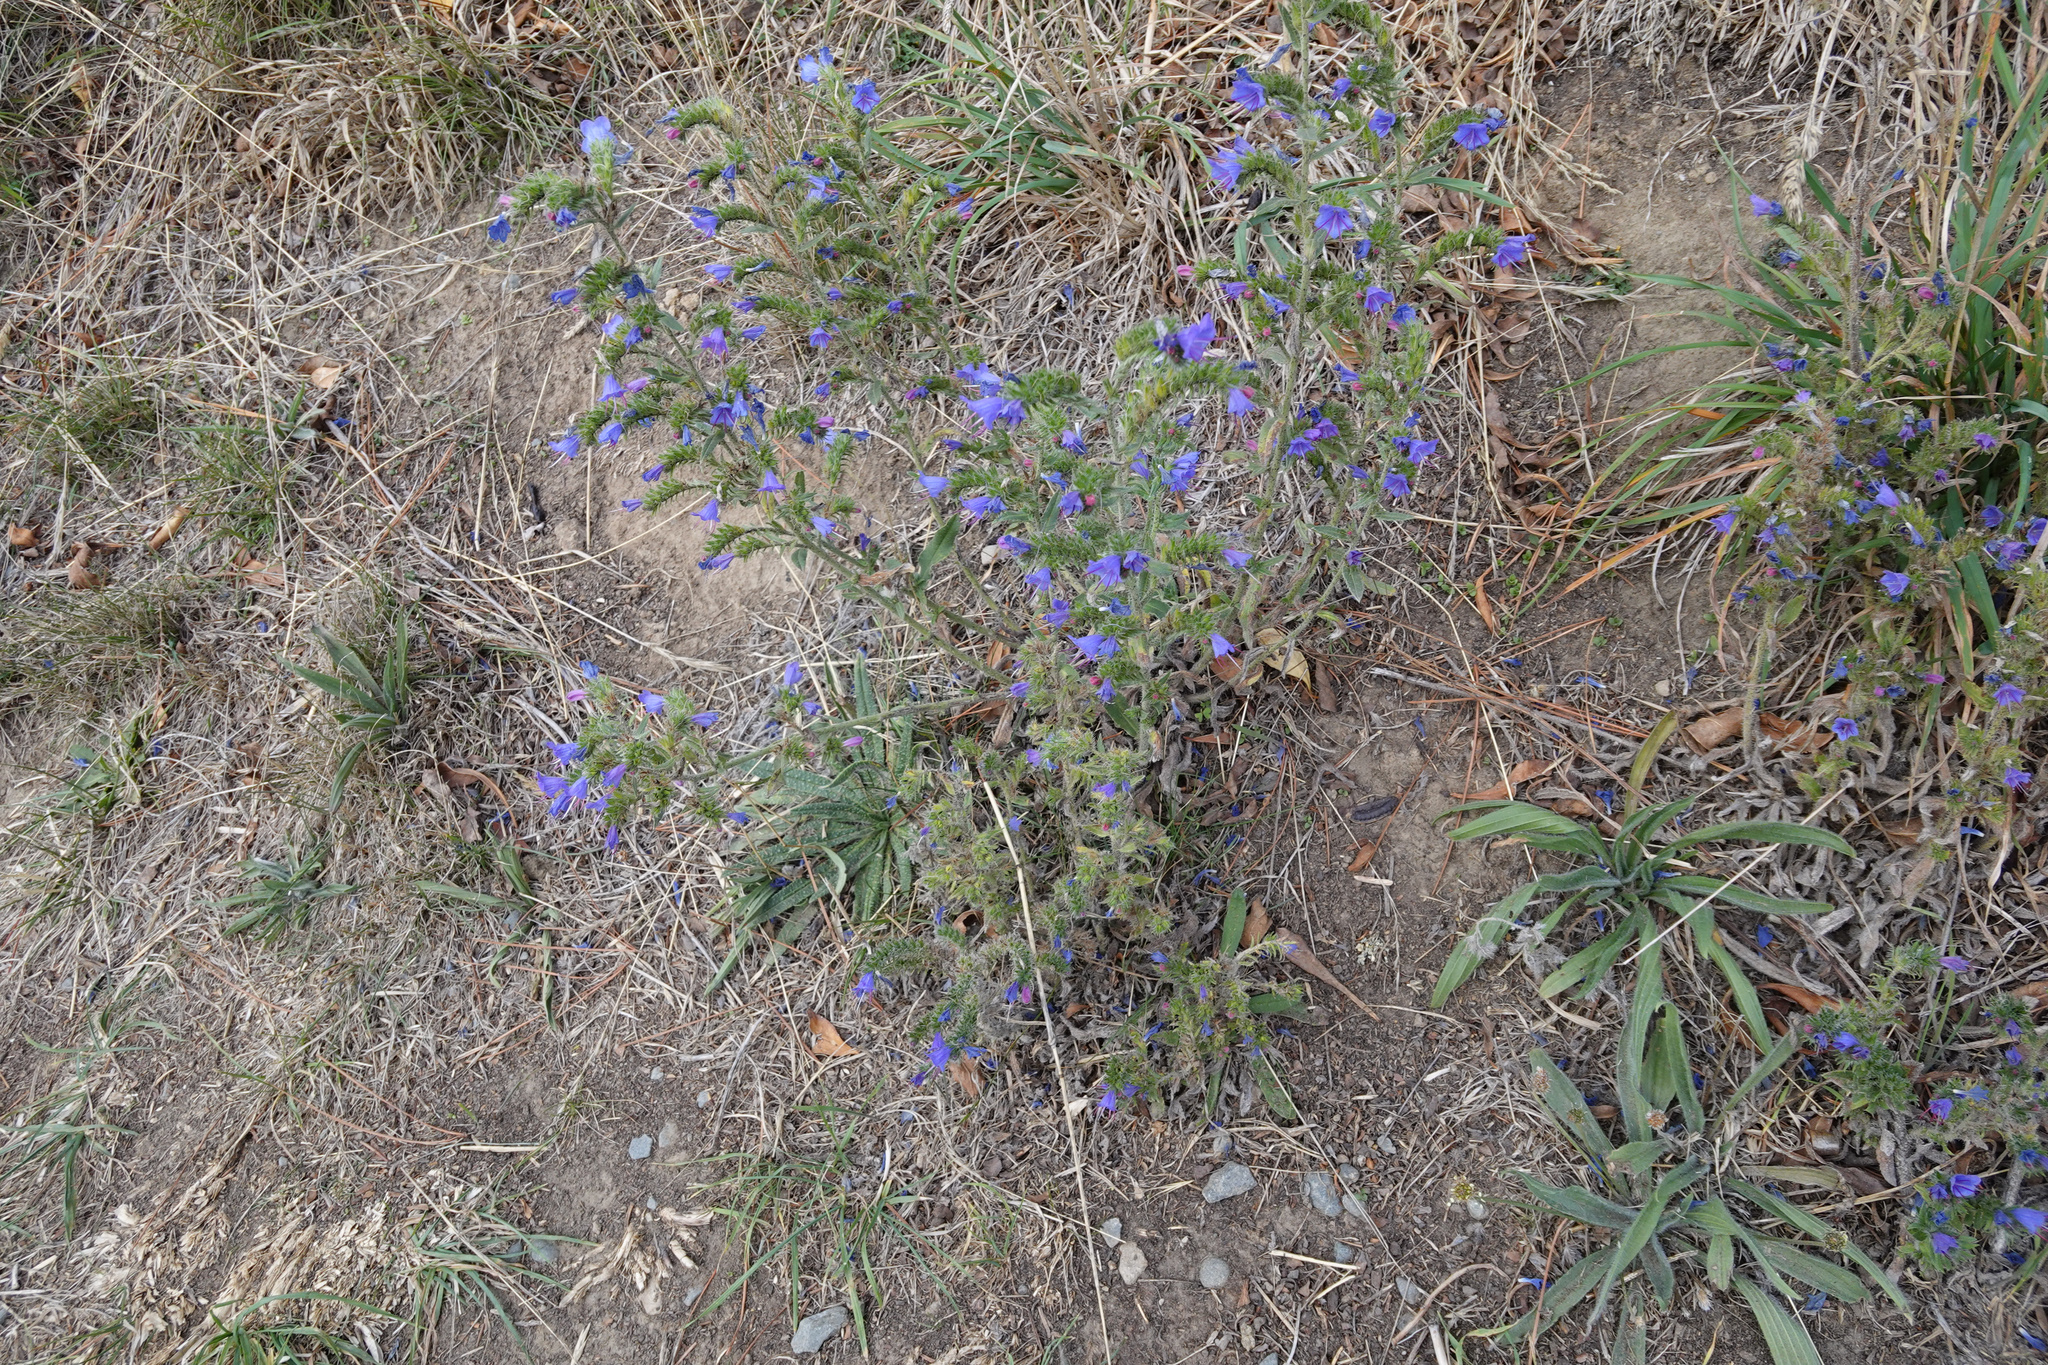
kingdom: Plantae
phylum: Tracheophyta
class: Magnoliopsida
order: Boraginales
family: Boraginaceae
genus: Echium
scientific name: Echium vulgare
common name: Common viper's bugloss
